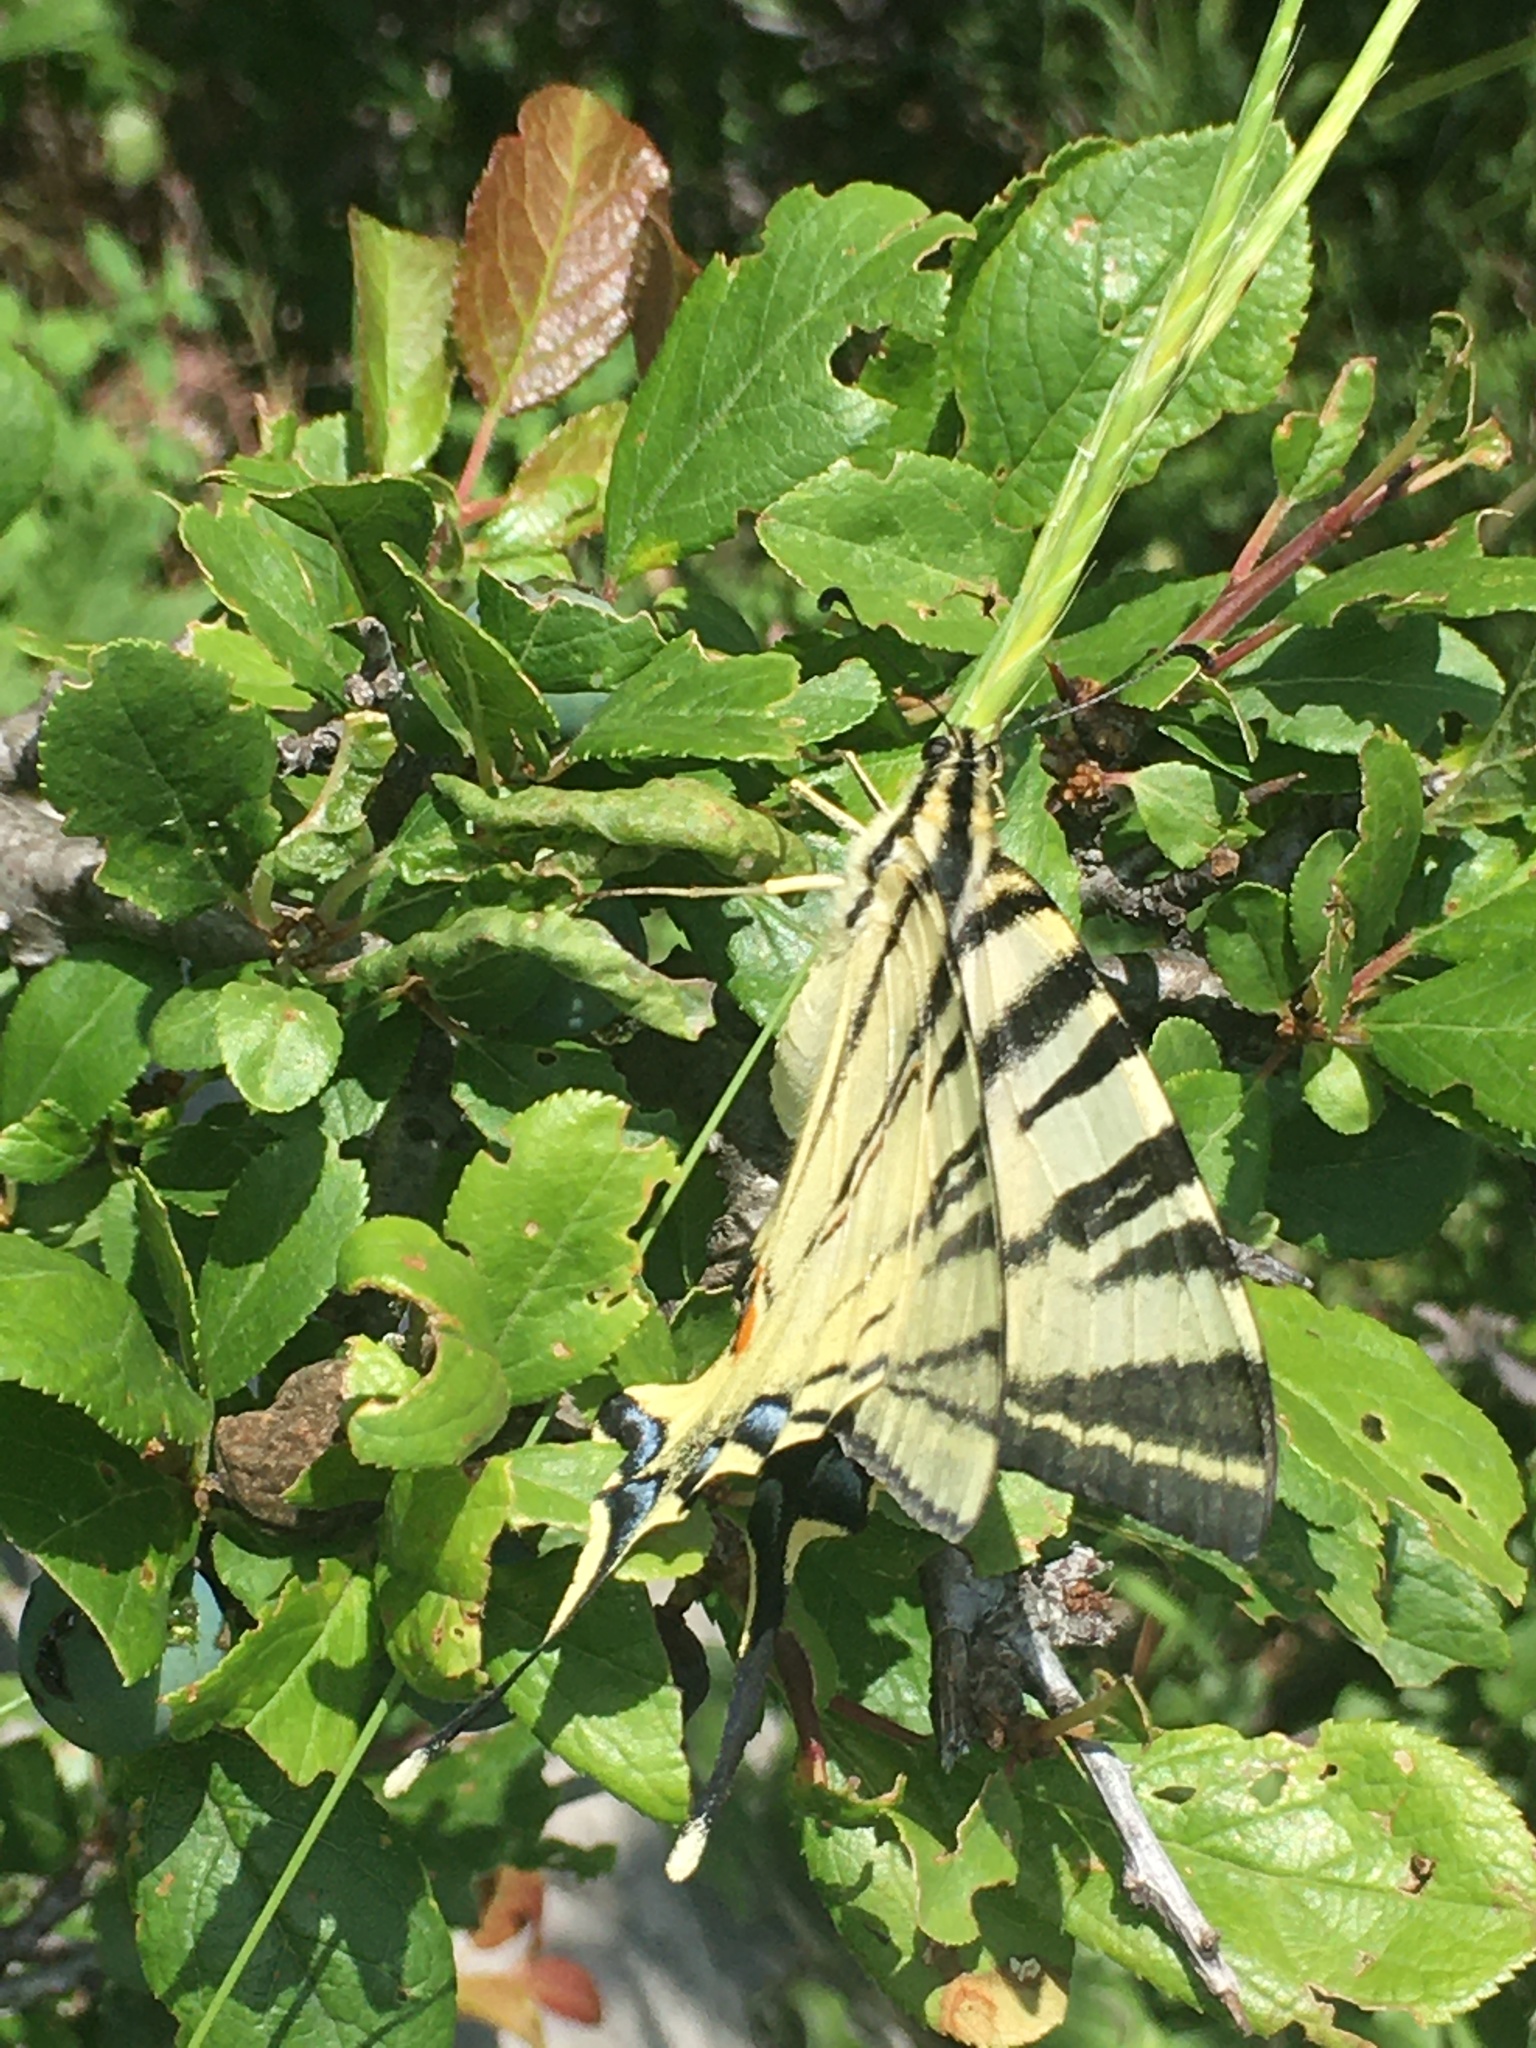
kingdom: Animalia
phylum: Arthropoda
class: Insecta
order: Lepidoptera
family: Papilionidae
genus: Iphiclides
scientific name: Iphiclides podalirius
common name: Scarce swallowtail
